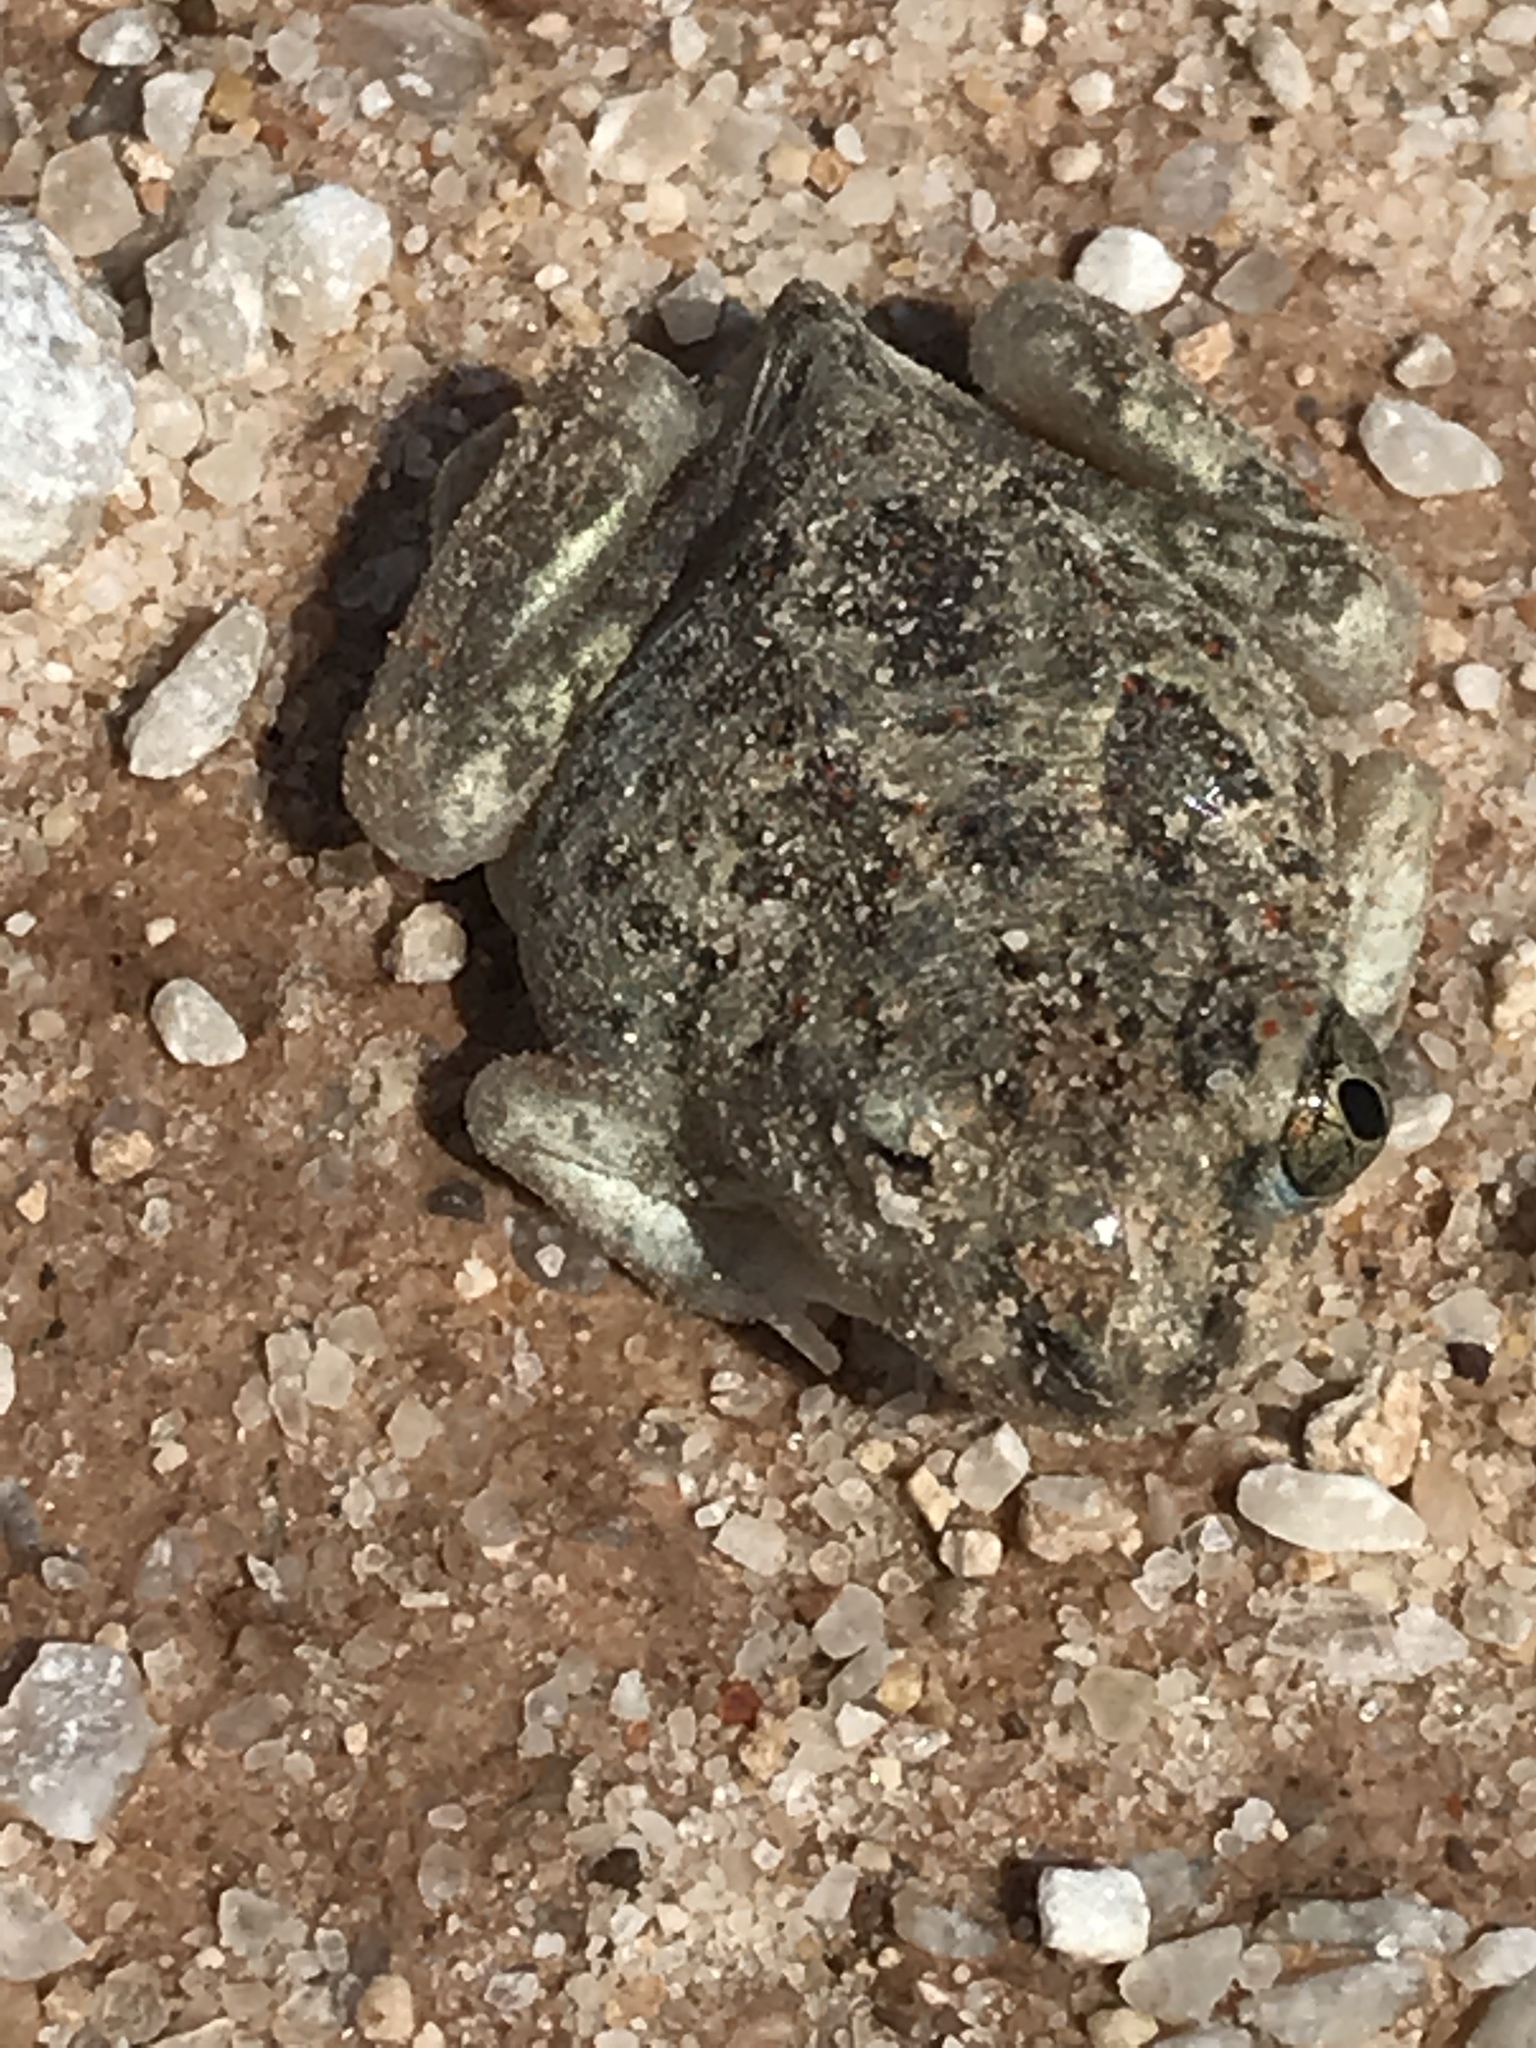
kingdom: Animalia
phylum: Chordata
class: Amphibia
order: Anura
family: Scaphiopodidae
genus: Spea
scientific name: Spea bombifrons
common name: Plains spadefoot
